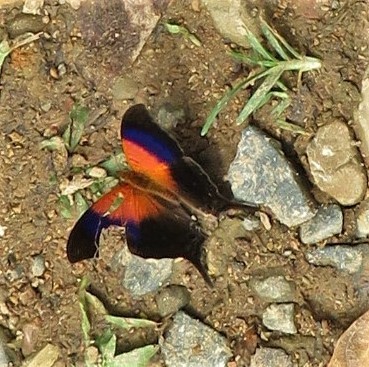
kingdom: Animalia
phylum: Arthropoda
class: Insecta
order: Lepidoptera
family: Nymphalidae
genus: Marpesia
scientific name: Marpesia furcula
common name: Sunset daggerwing
